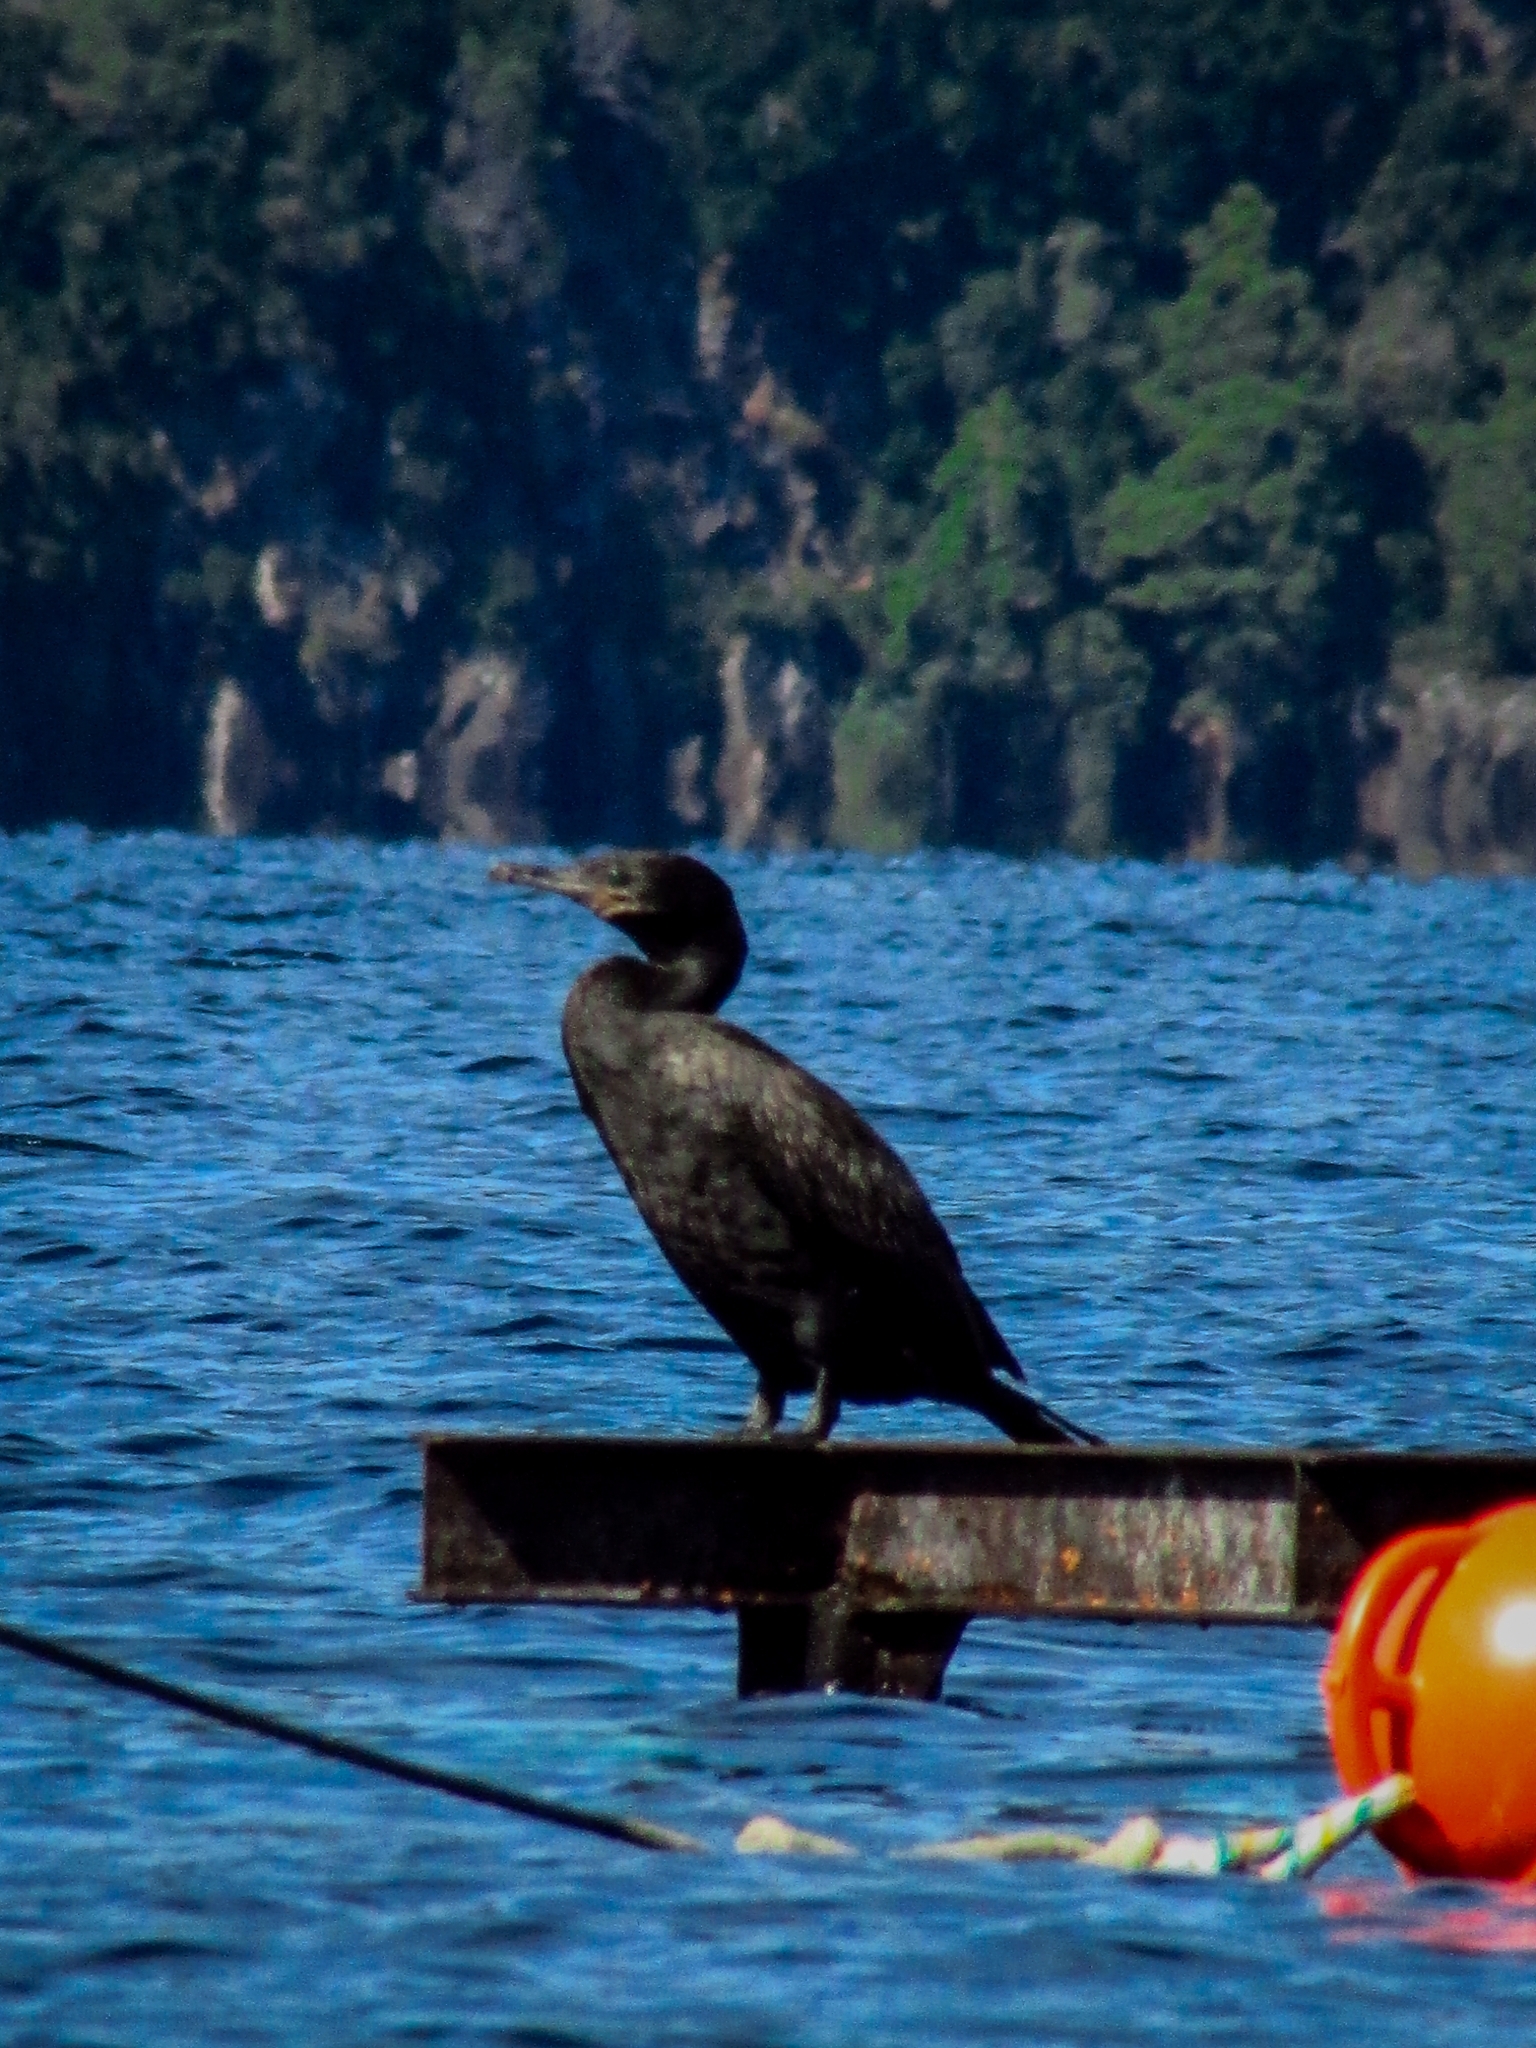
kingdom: Animalia
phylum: Chordata
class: Aves
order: Suliformes
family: Phalacrocoracidae
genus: Phalacrocorax
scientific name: Phalacrocorax brasilianus
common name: Neotropic cormorant
